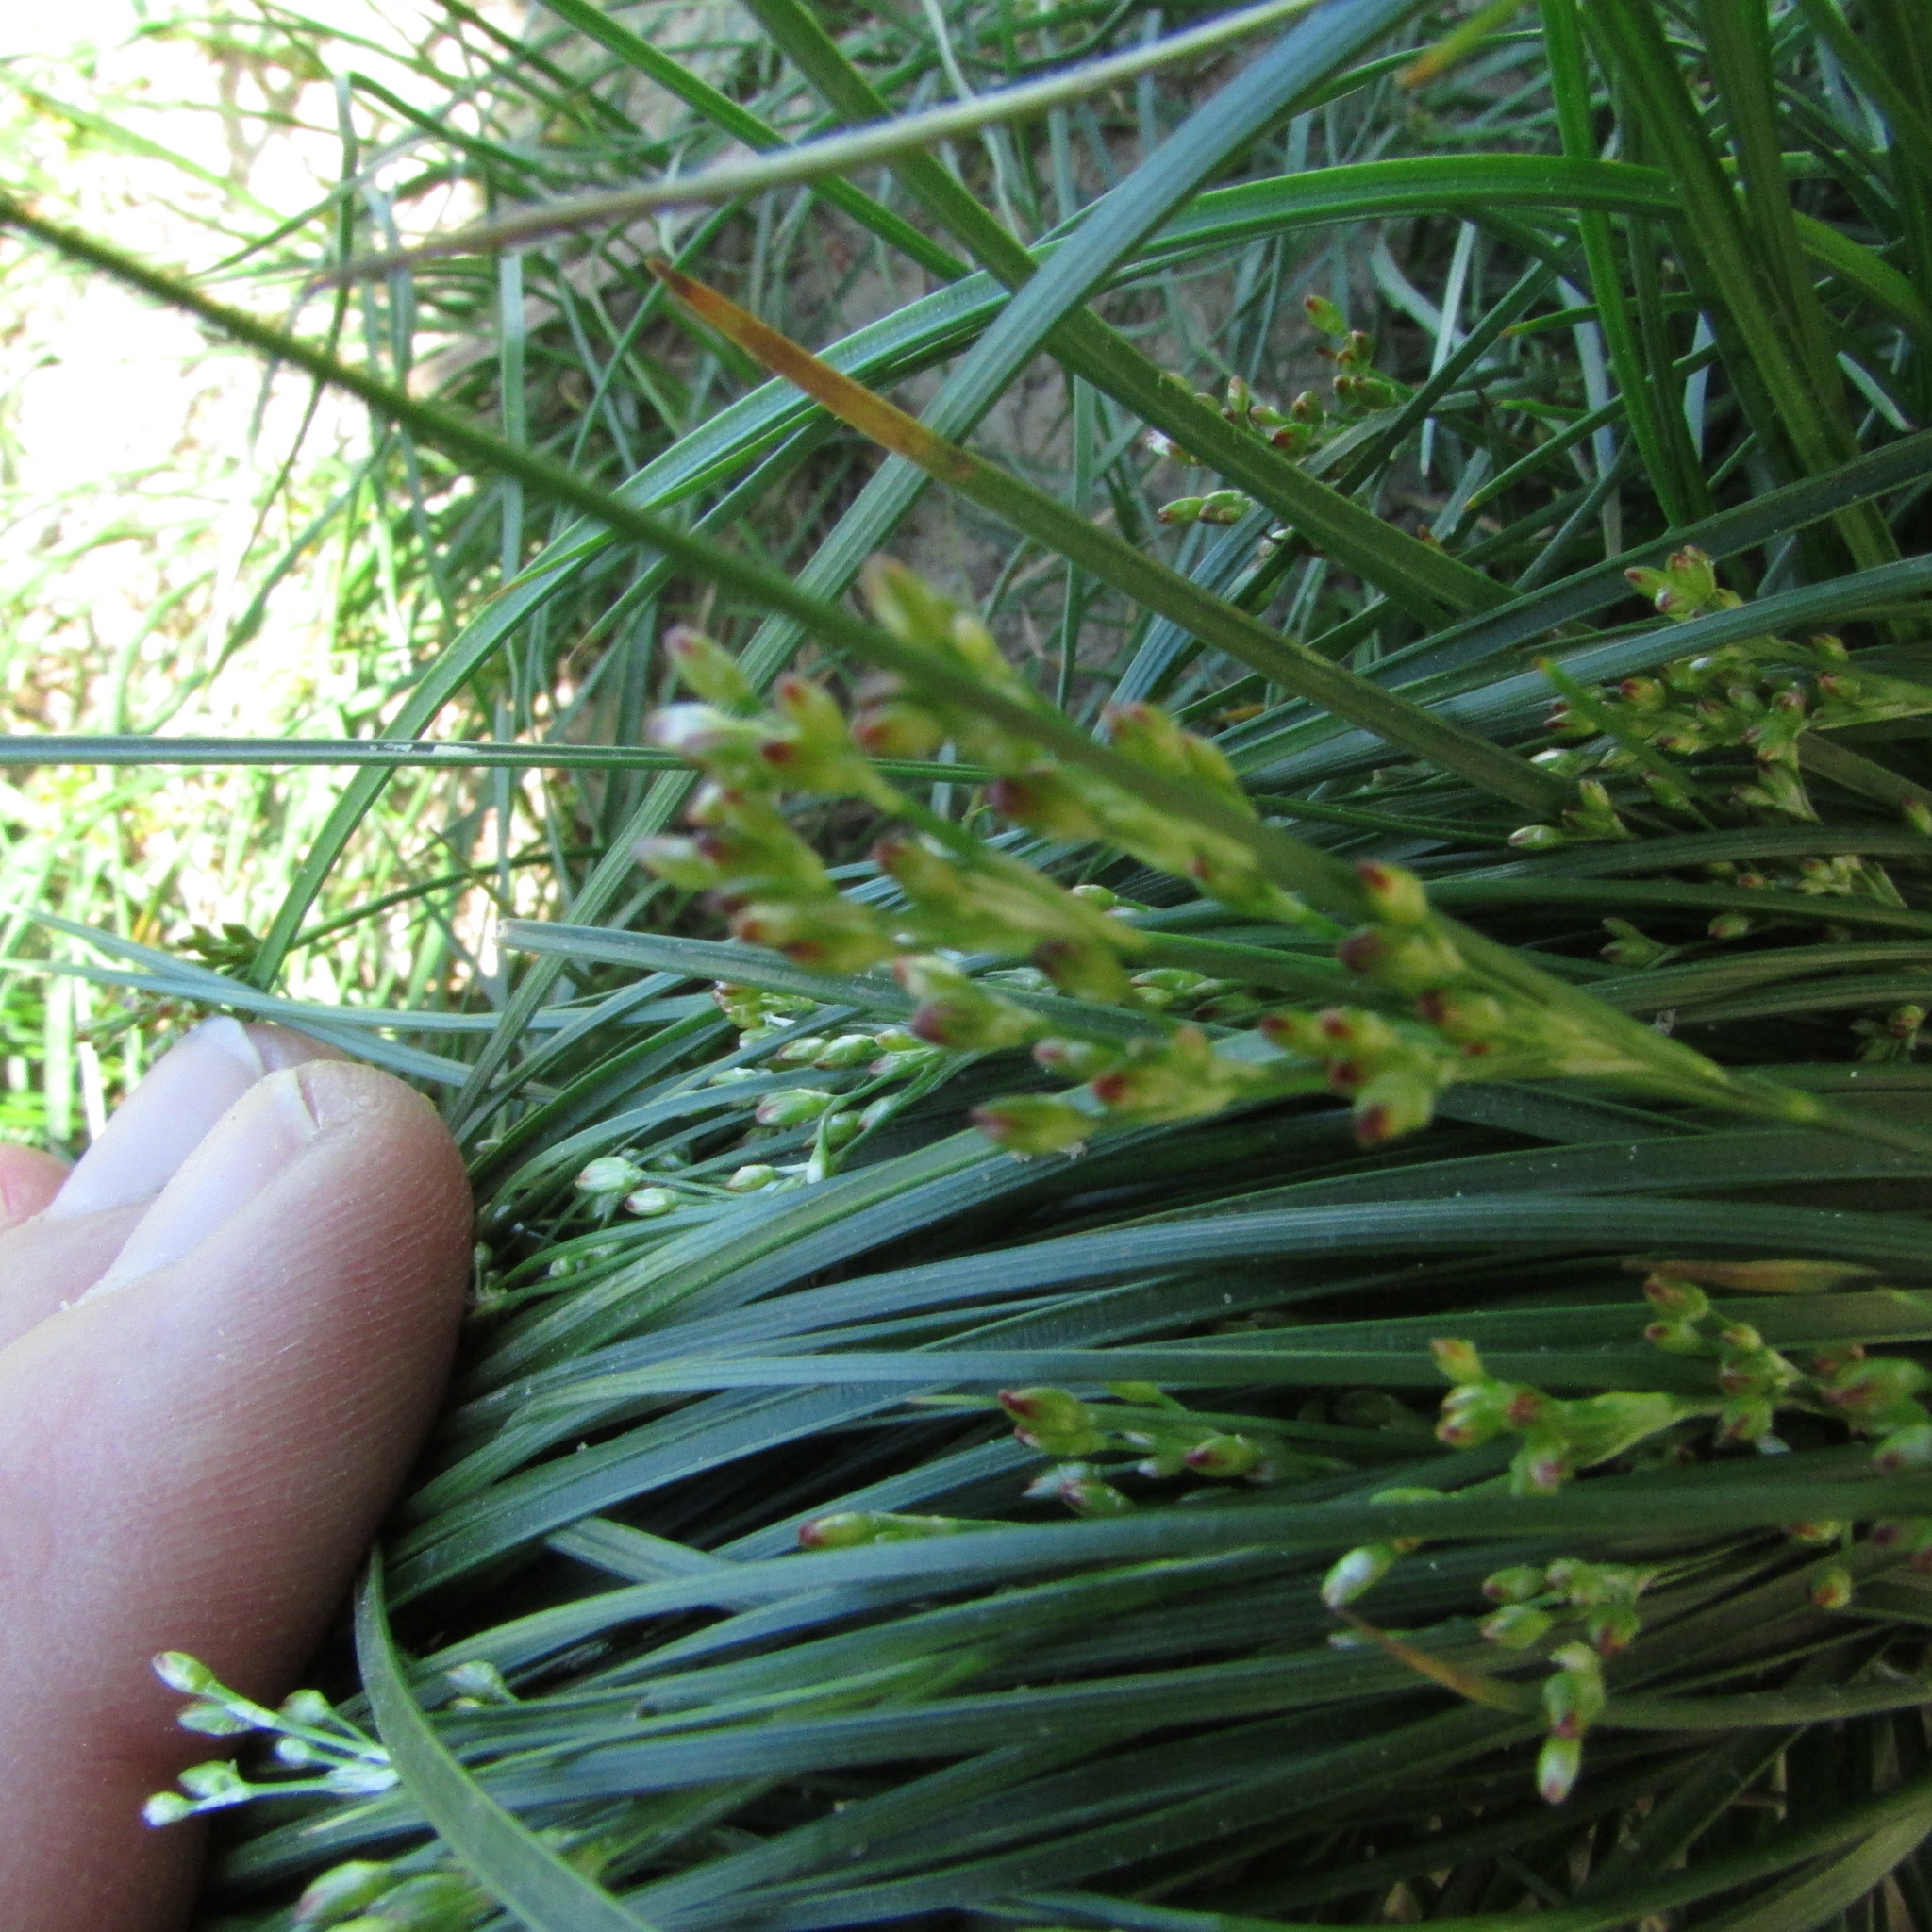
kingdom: Plantae
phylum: Tracheophyta
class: Liliopsida
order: Poales
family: Juncaceae
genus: Juncus
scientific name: Juncus compressus
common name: Round-fruited rush
